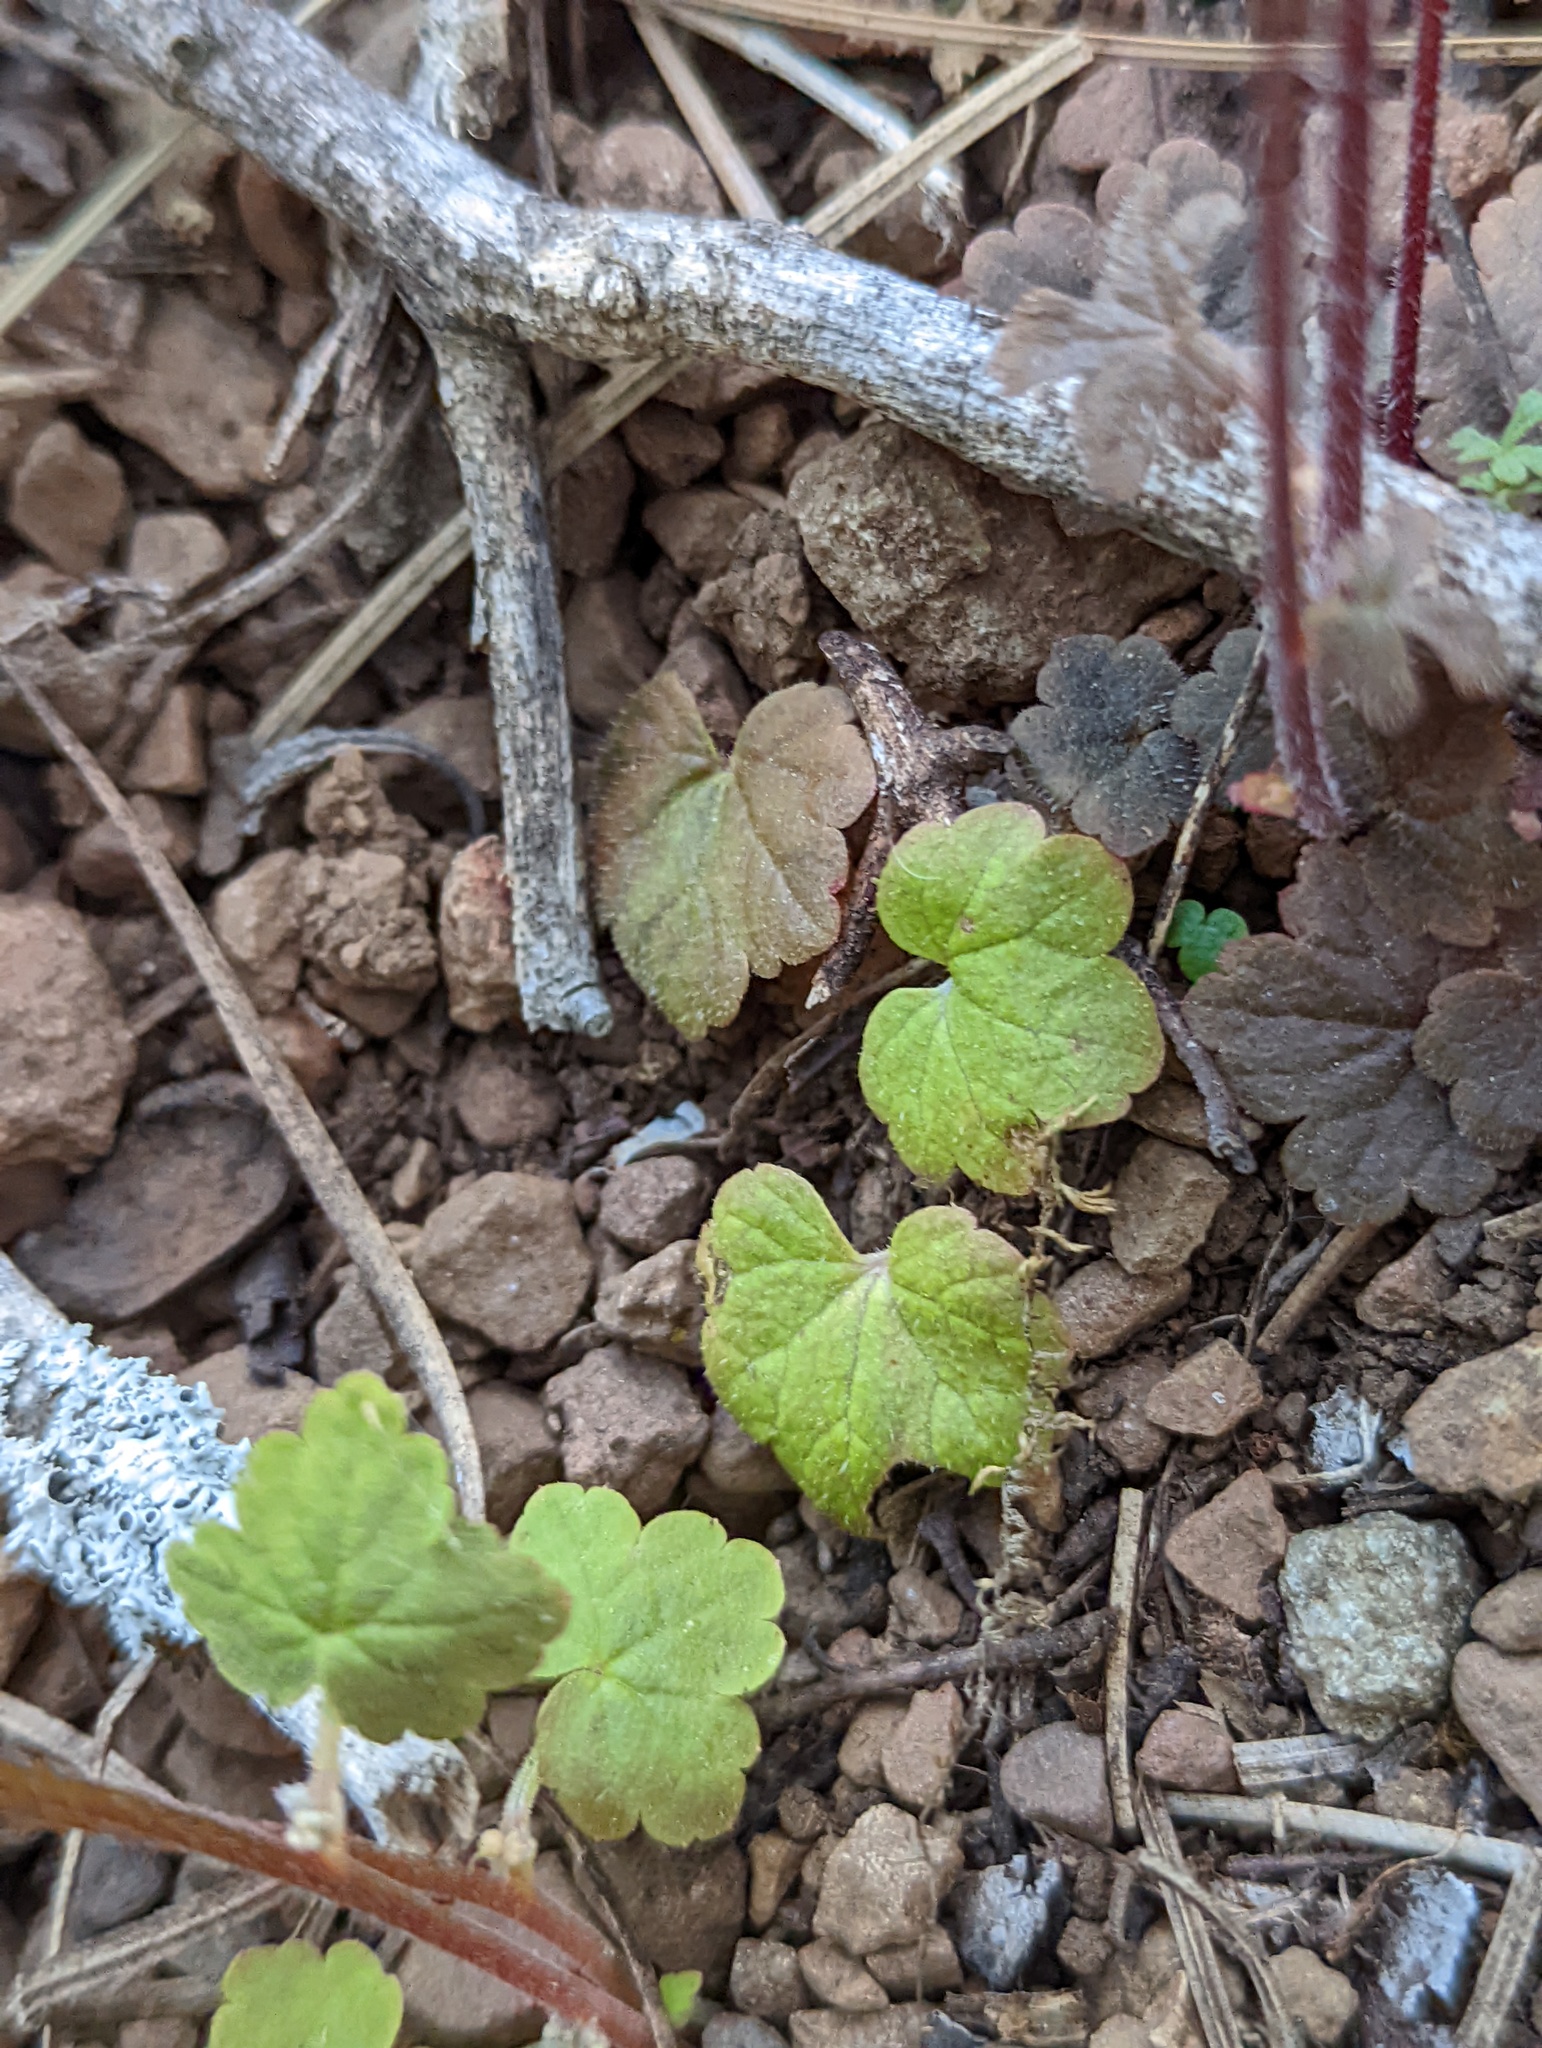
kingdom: Plantae
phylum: Tracheophyta
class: Magnoliopsida
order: Saxifragales
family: Saxifragaceae
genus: Lithophragma
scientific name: Lithophragma heterophyllum
